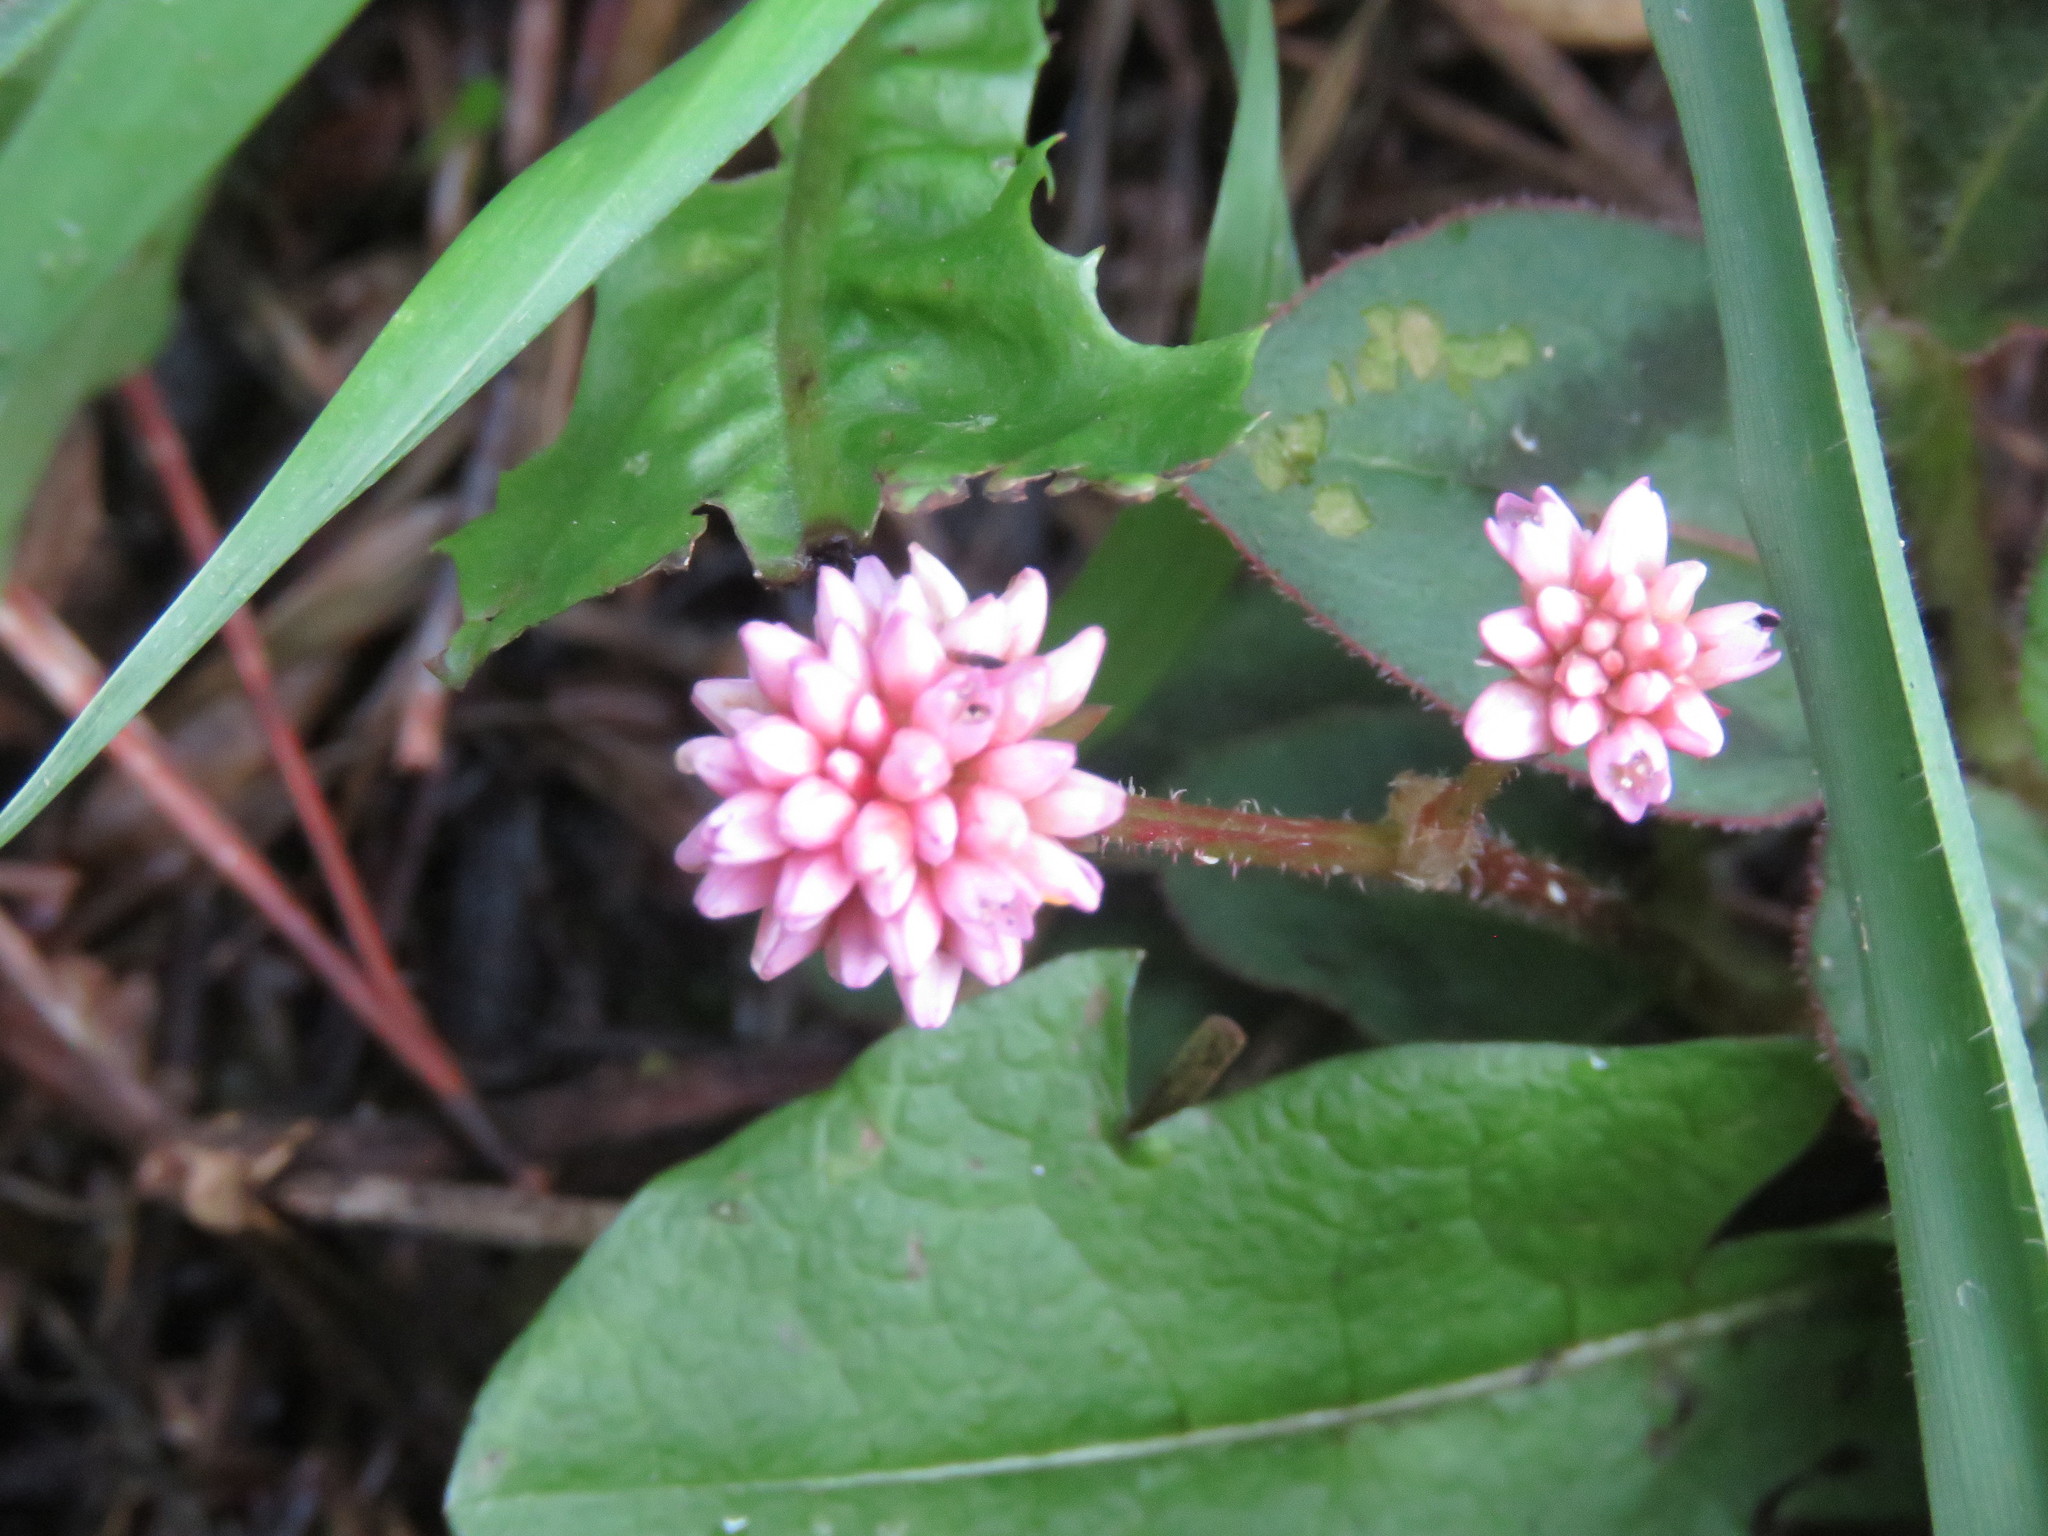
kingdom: Plantae
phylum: Tracheophyta
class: Magnoliopsida
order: Caryophyllales
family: Polygonaceae
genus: Persicaria
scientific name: Persicaria capitata
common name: Pinkhead smartweed
